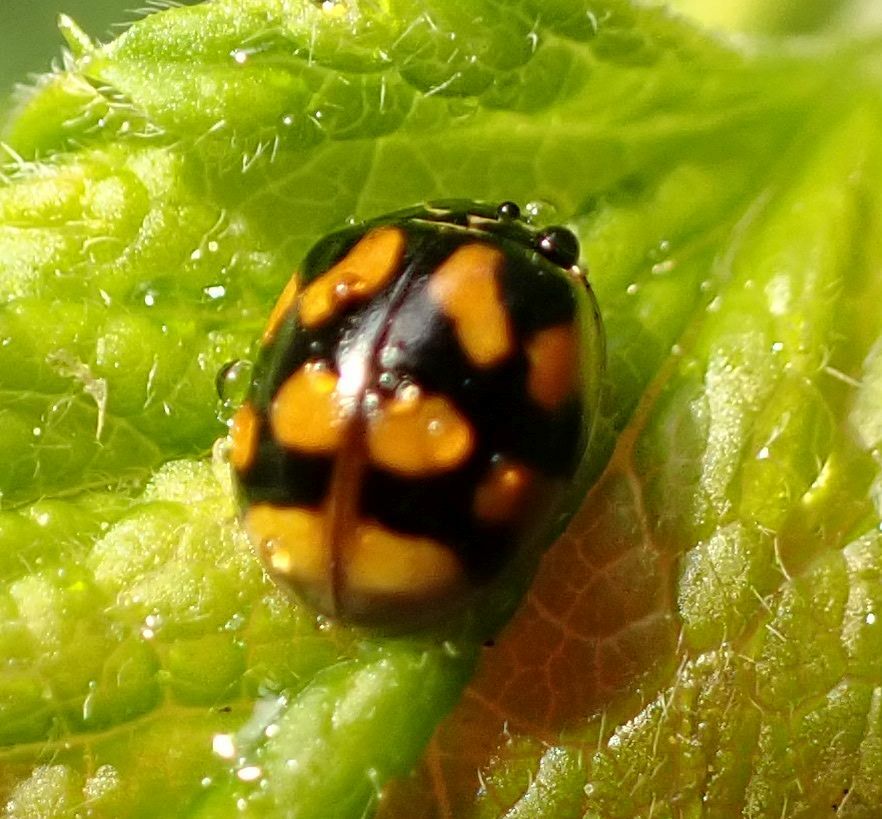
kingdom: Animalia
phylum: Arthropoda
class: Insecta
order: Coleoptera
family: Coccinellidae
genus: Adalia
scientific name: Adalia decempunctata
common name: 10-spot ladybird
